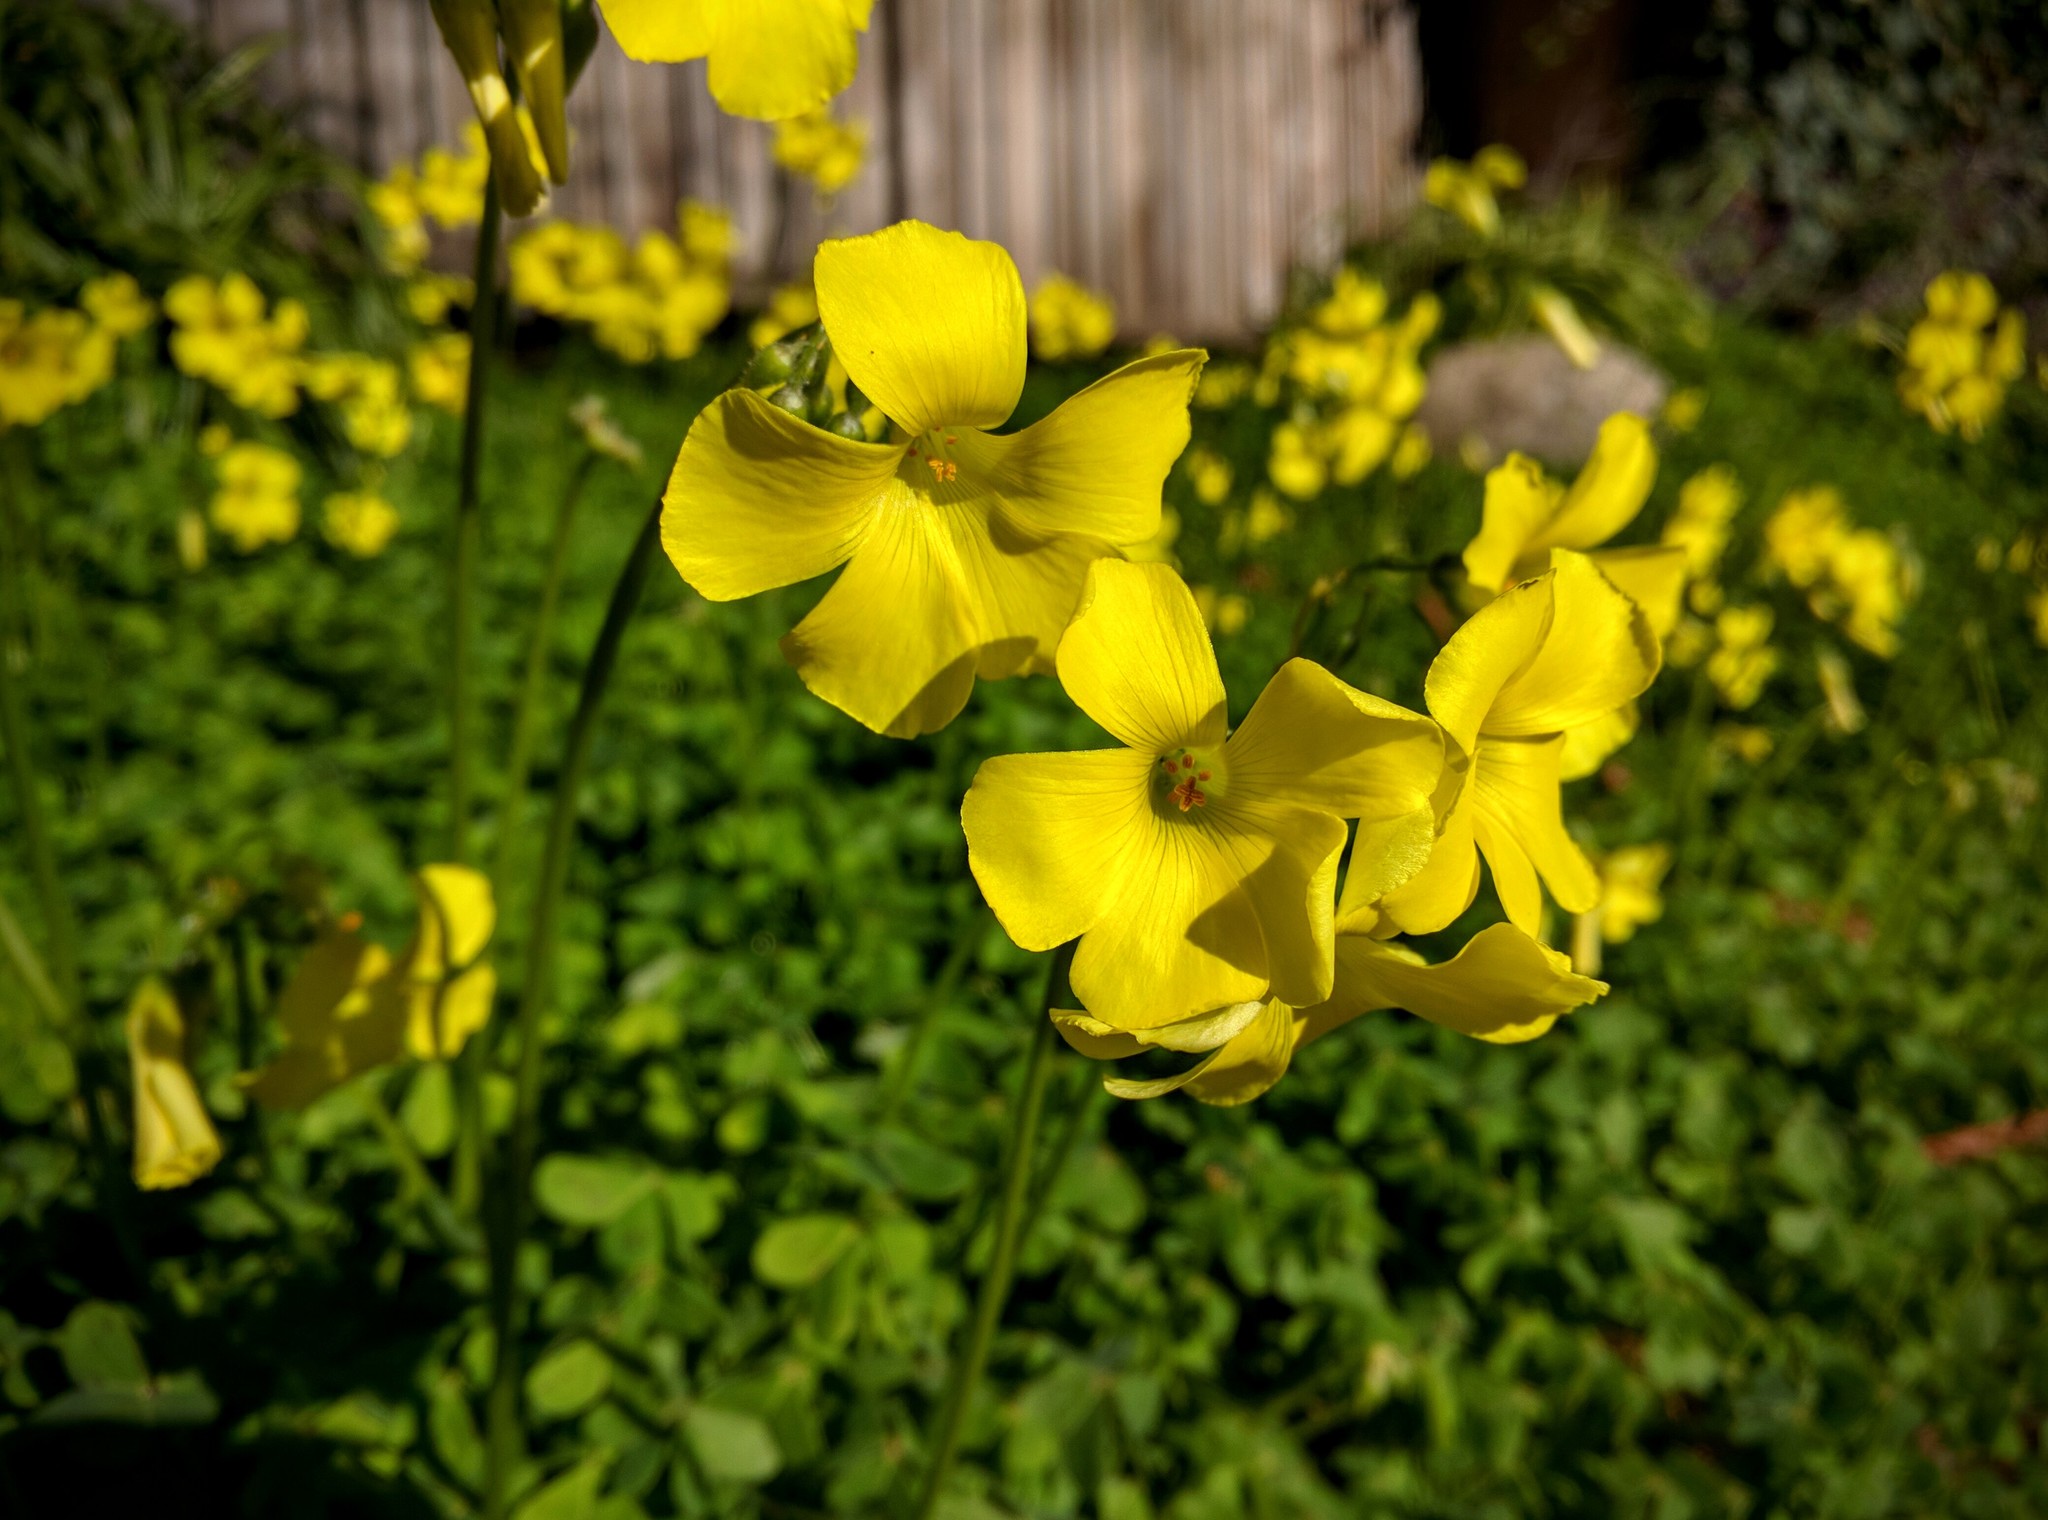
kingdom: Plantae
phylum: Tracheophyta
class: Magnoliopsida
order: Oxalidales
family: Oxalidaceae
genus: Oxalis
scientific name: Oxalis pes-caprae
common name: Bermuda-buttercup
